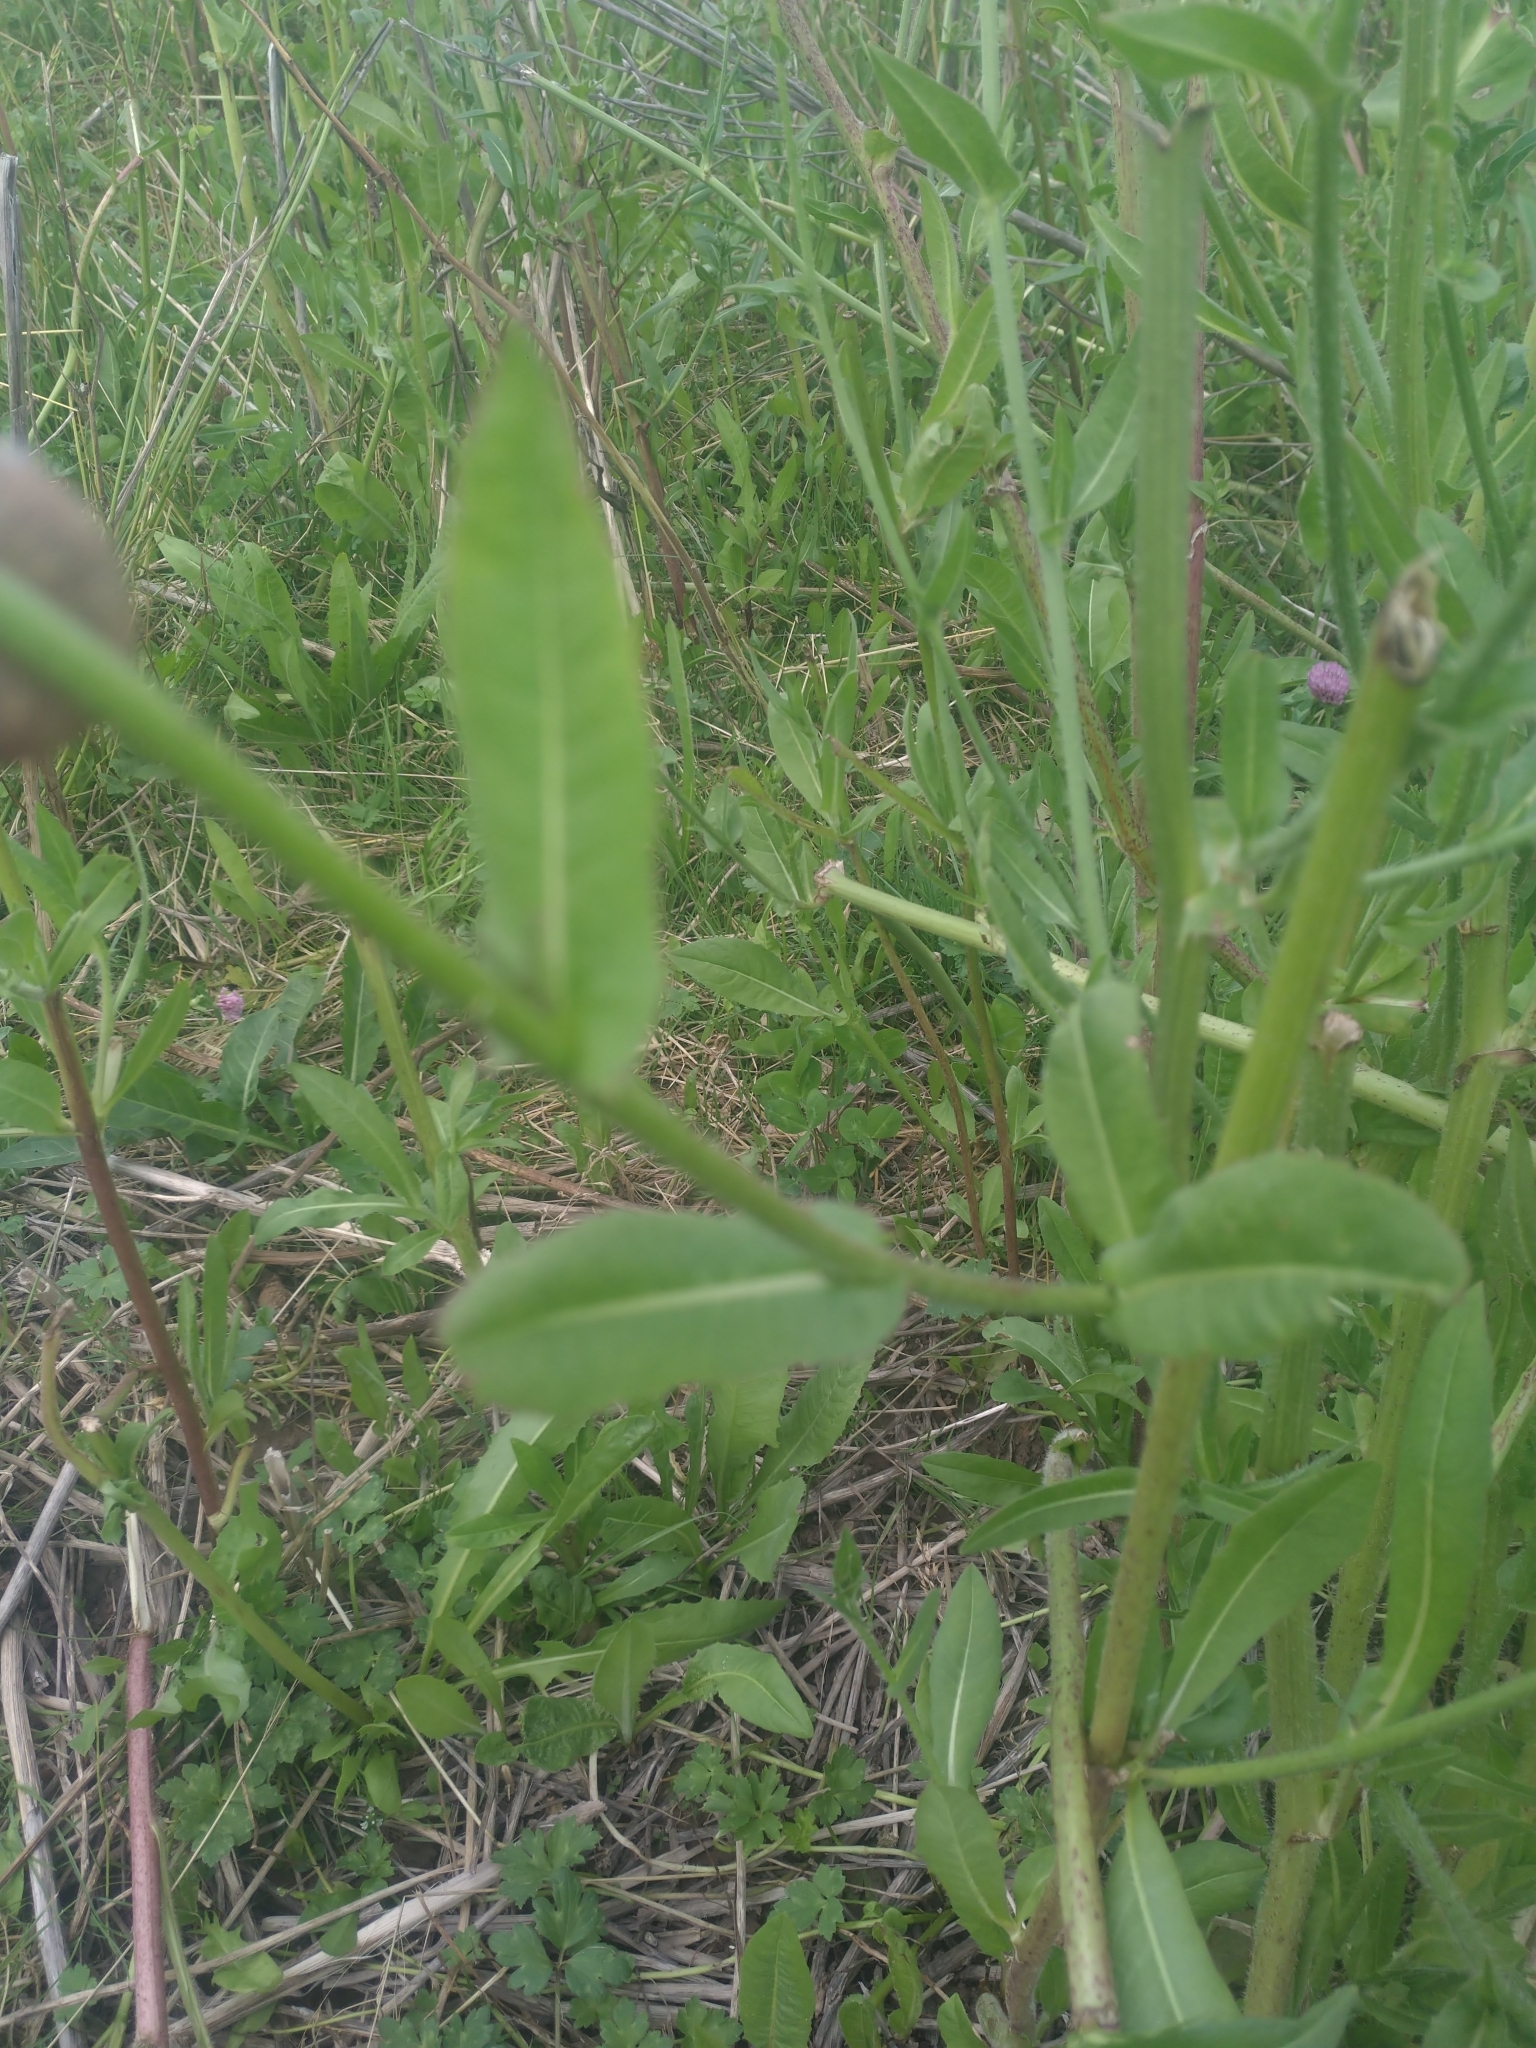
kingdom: Plantae
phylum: Tracheophyta
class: Magnoliopsida
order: Asterales
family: Asteraceae
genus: Cichorium
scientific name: Cichorium intybus
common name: Chicory
